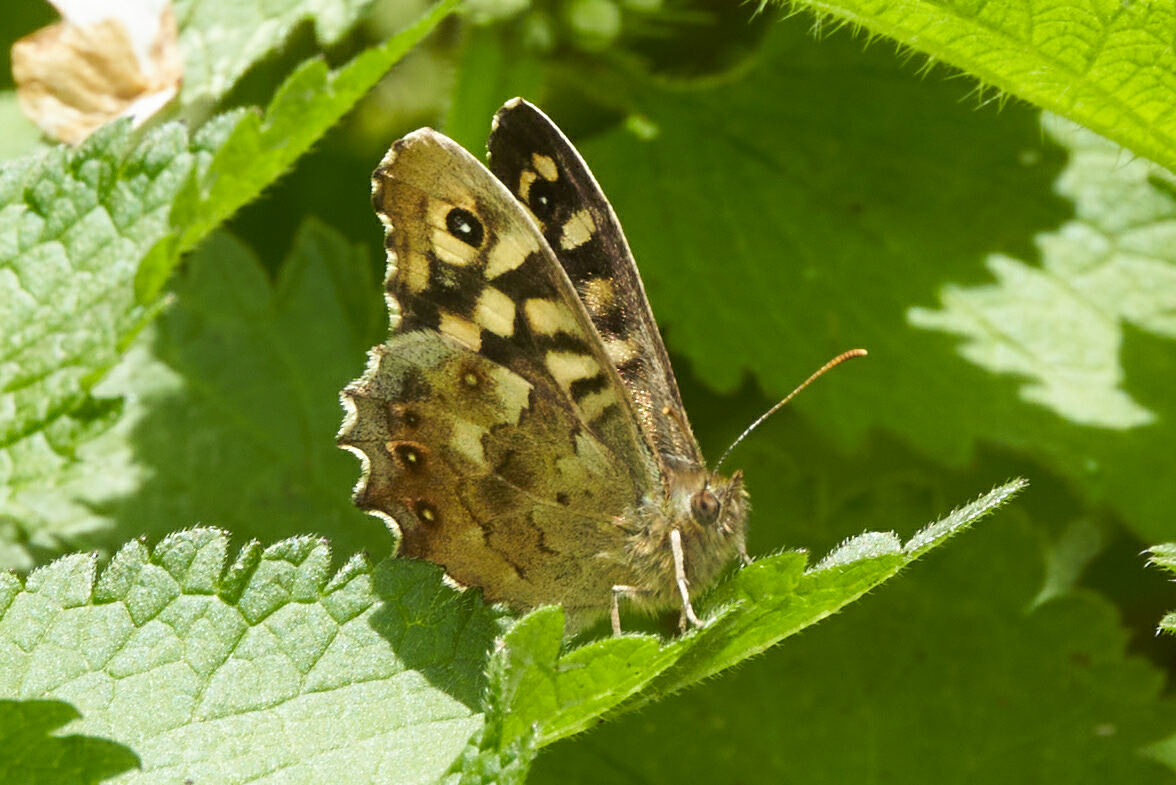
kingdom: Animalia
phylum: Arthropoda
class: Insecta
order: Lepidoptera
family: Nymphalidae
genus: Pararge
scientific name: Pararge aegeria
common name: Speckled wood
